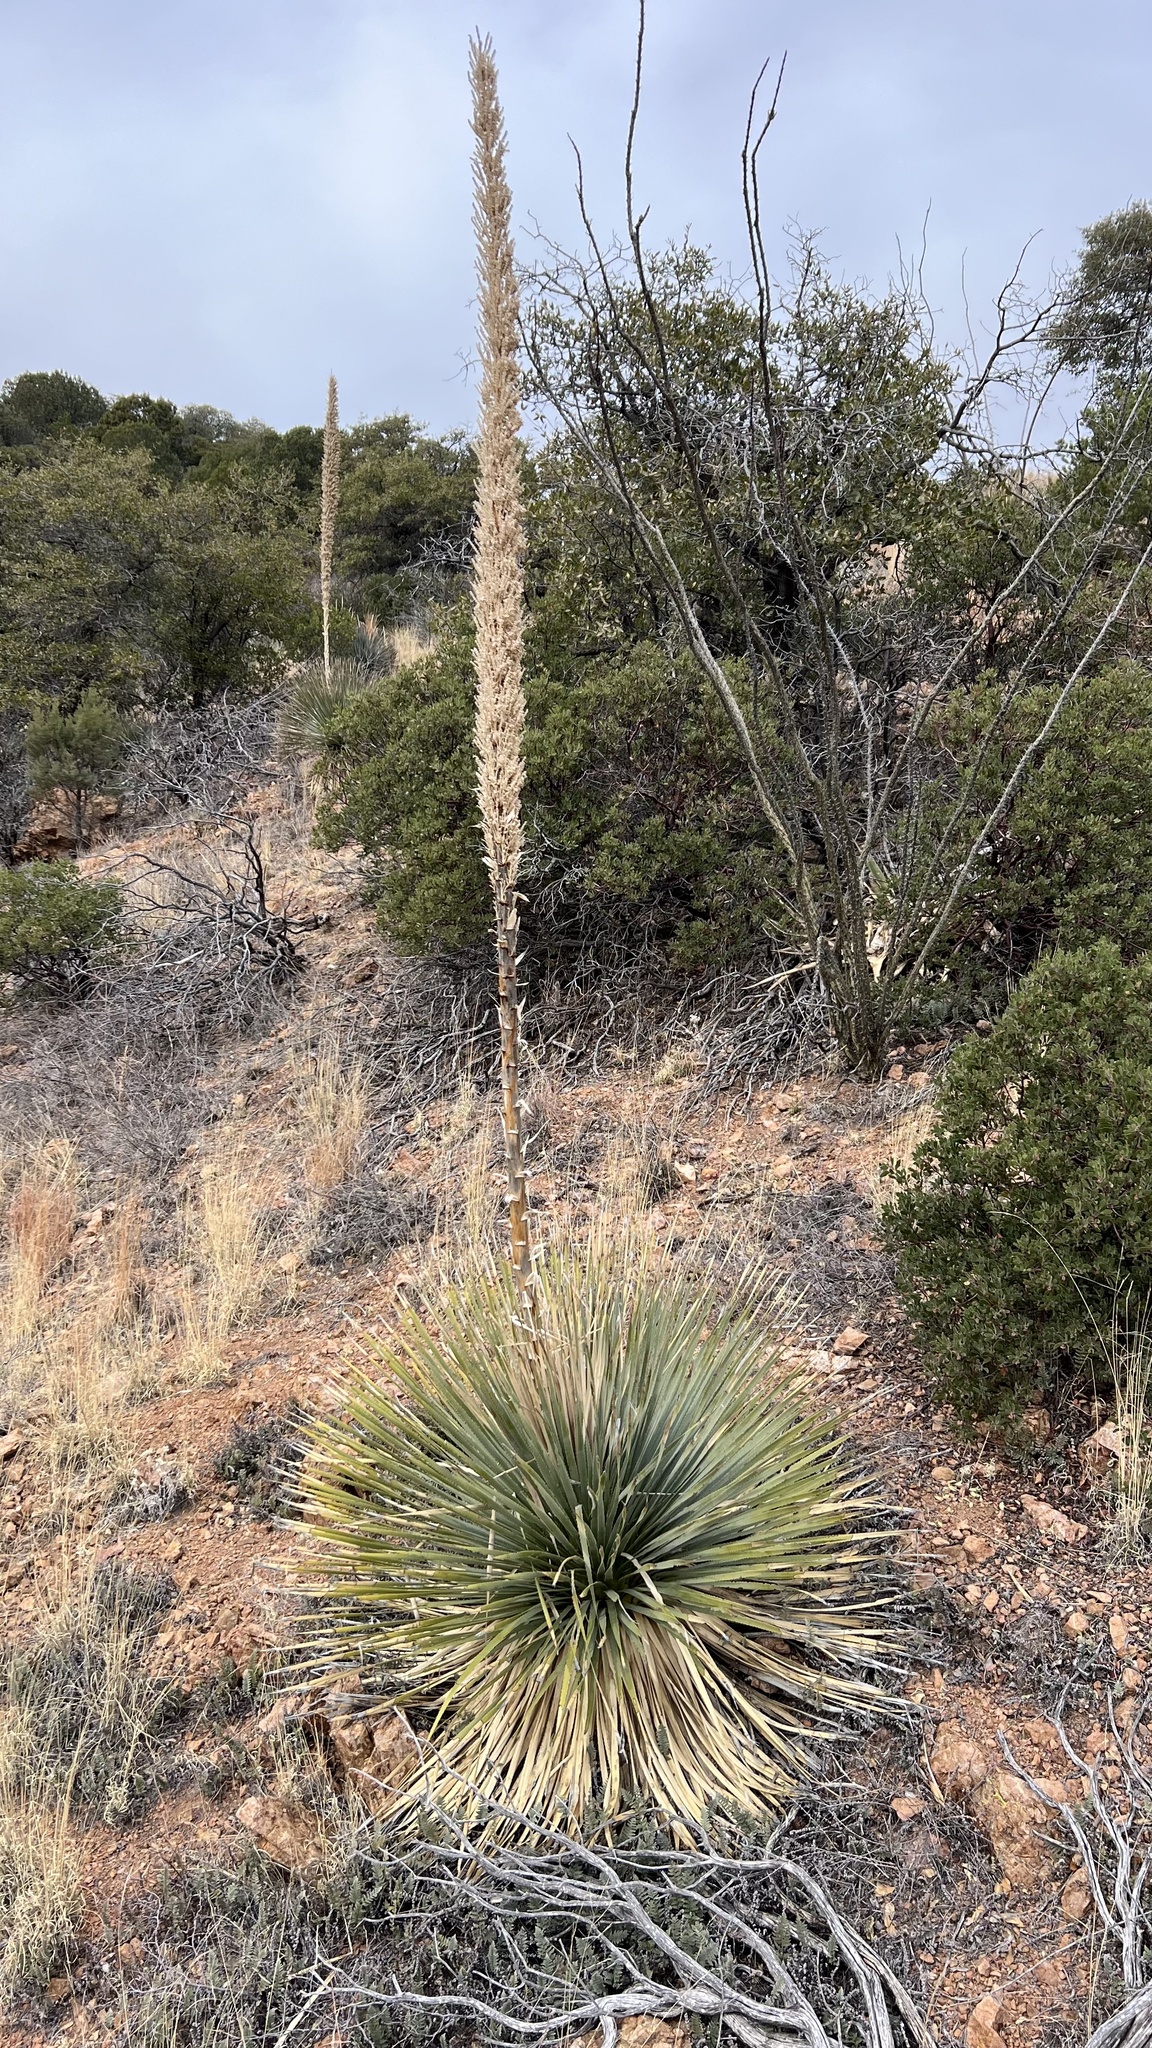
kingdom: Plantae
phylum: Tracheophyta
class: Liliopsida
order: Asparagales
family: Asparagaceae
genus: Dasylirion
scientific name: Dasylirion wheeleri
